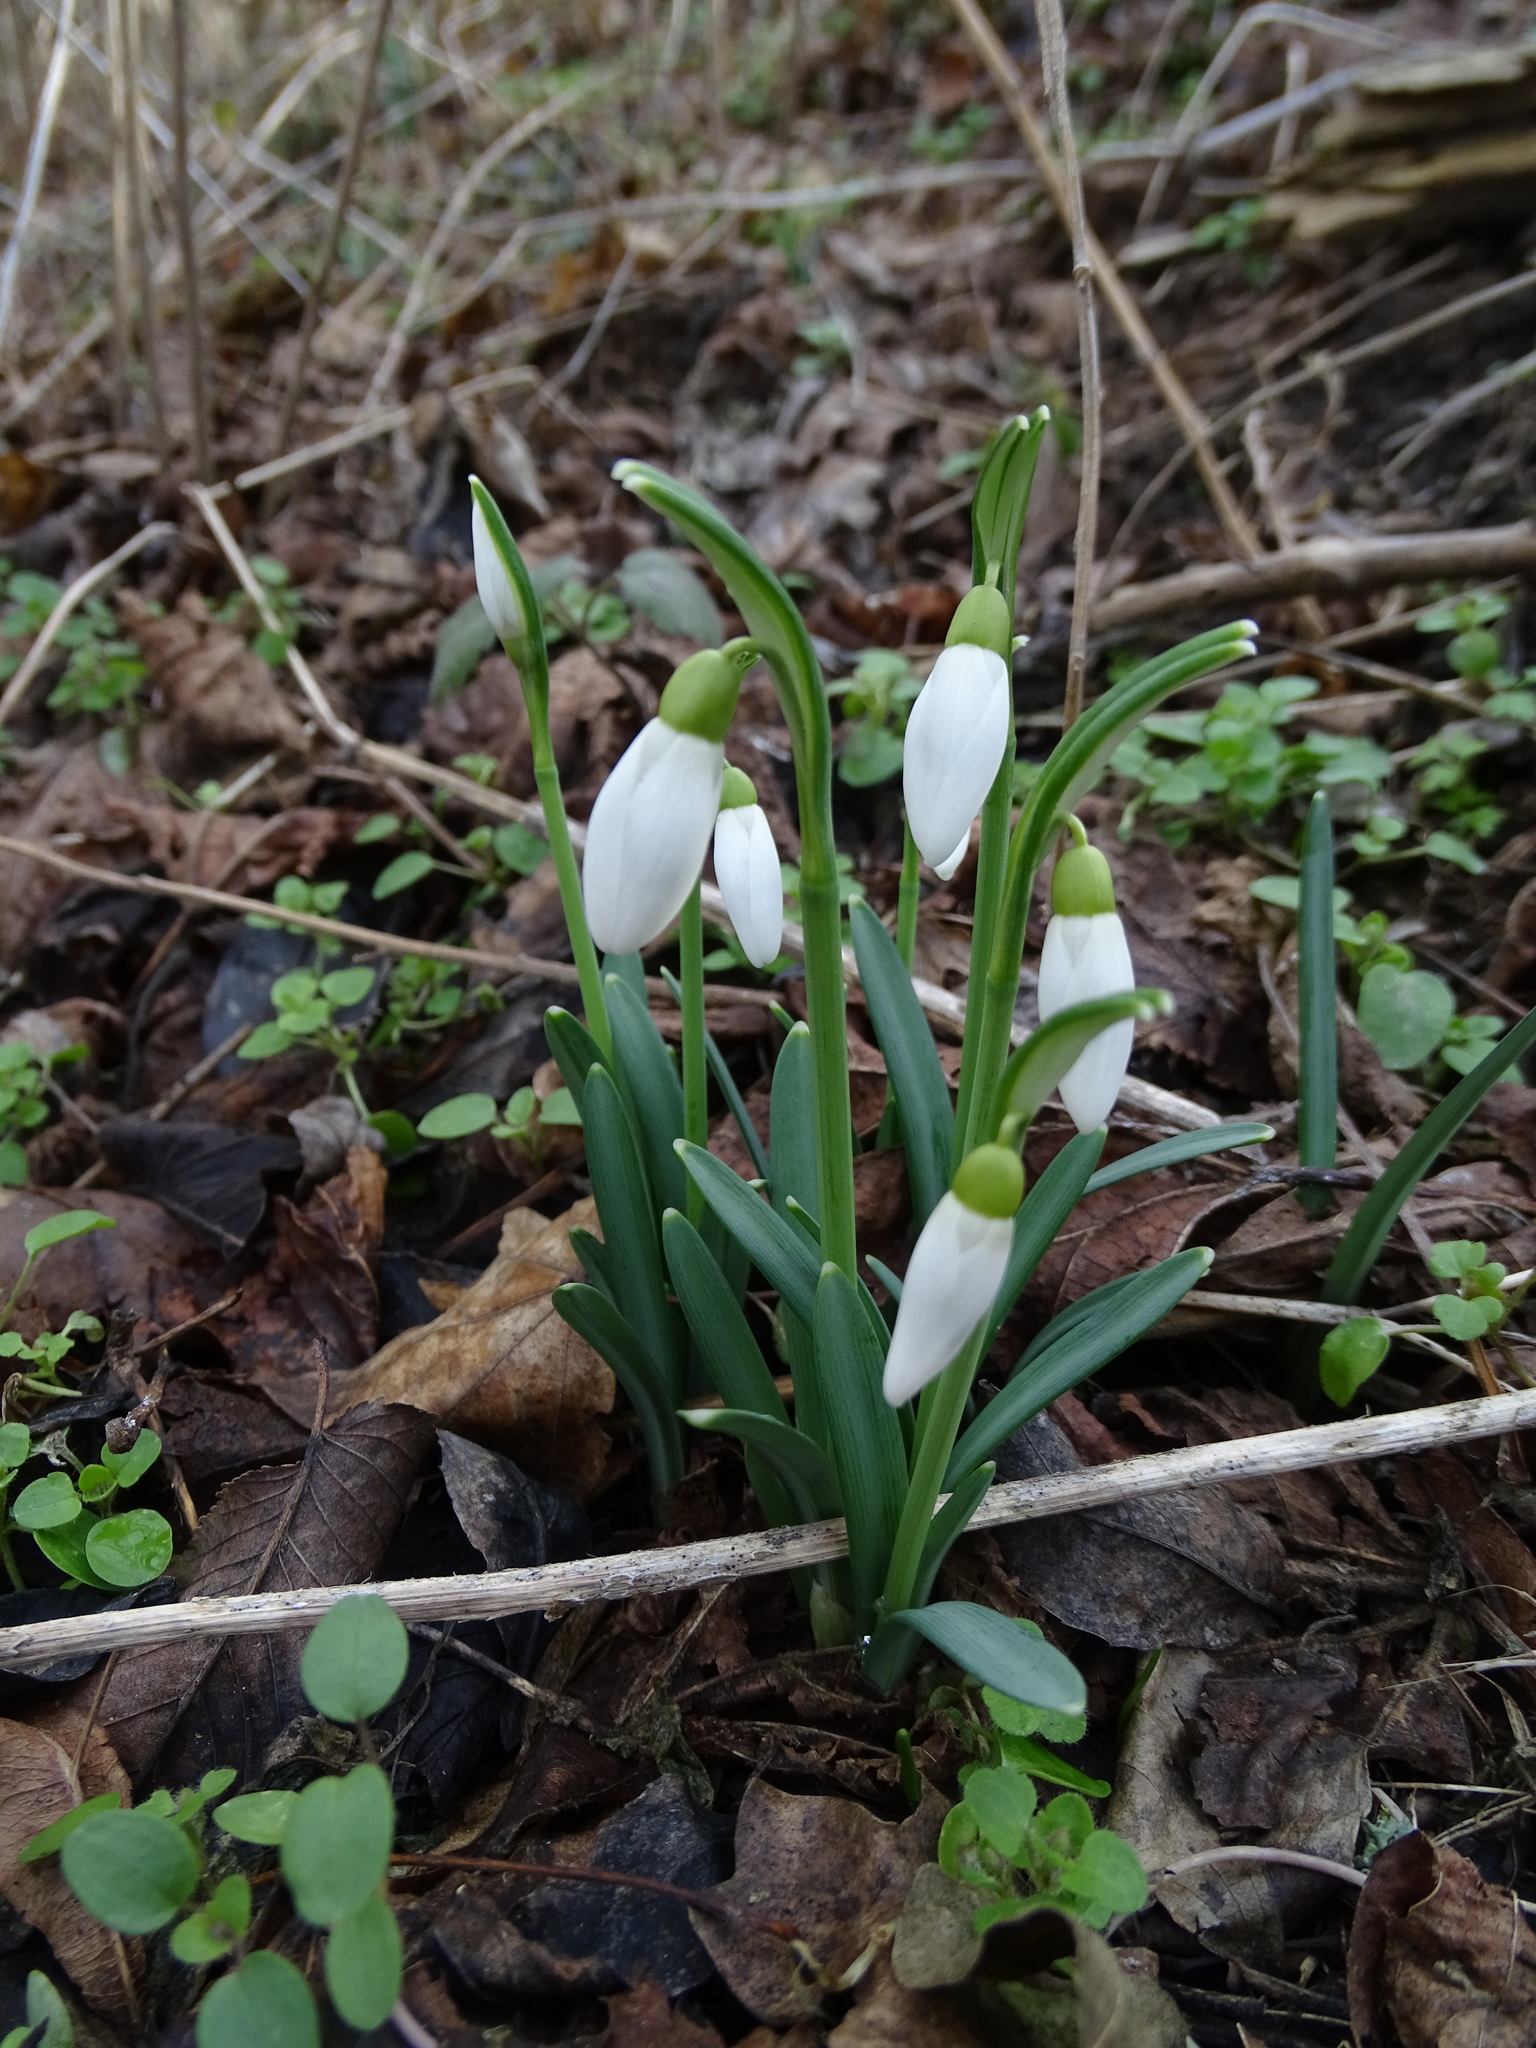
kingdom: Plantae
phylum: Tracheophyta
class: Liliopsida
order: Asparagales
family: Amaryllidaceae
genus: Galanthus
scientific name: Galanthus nivalis
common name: Snowdrop
